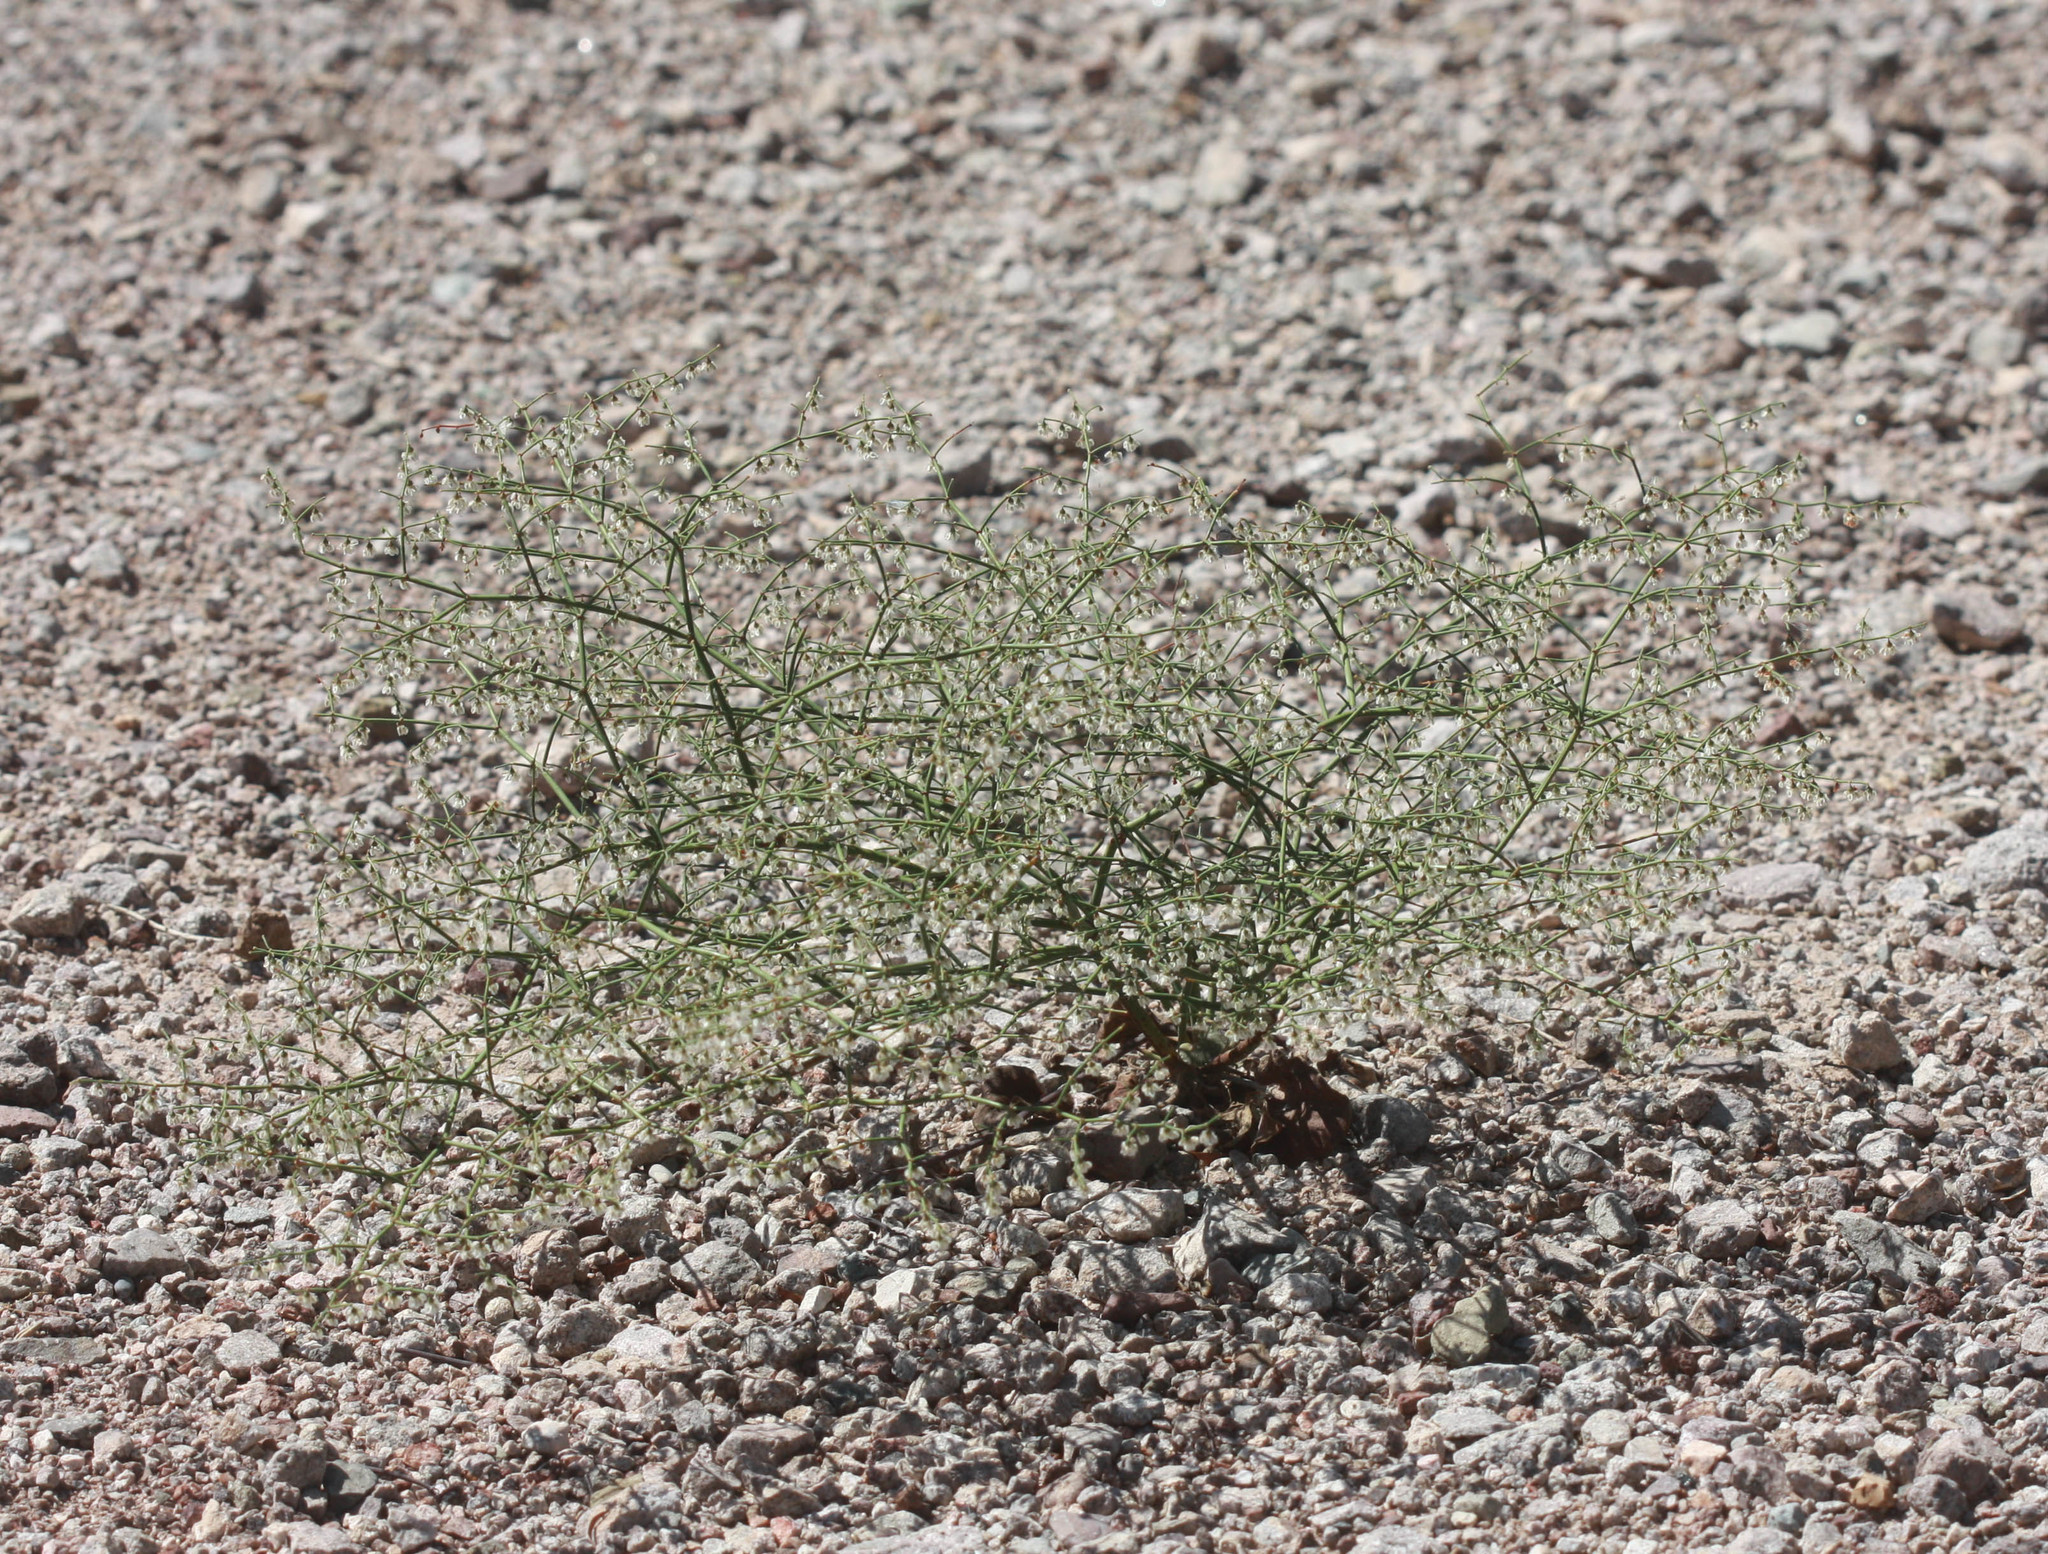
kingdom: Plantae
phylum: Tracheophyta
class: Magnoliopsida
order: Caryophyllales
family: Polygonaceae
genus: Eriogonum
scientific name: Eriogonum deflexum
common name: Skeleton-weed
